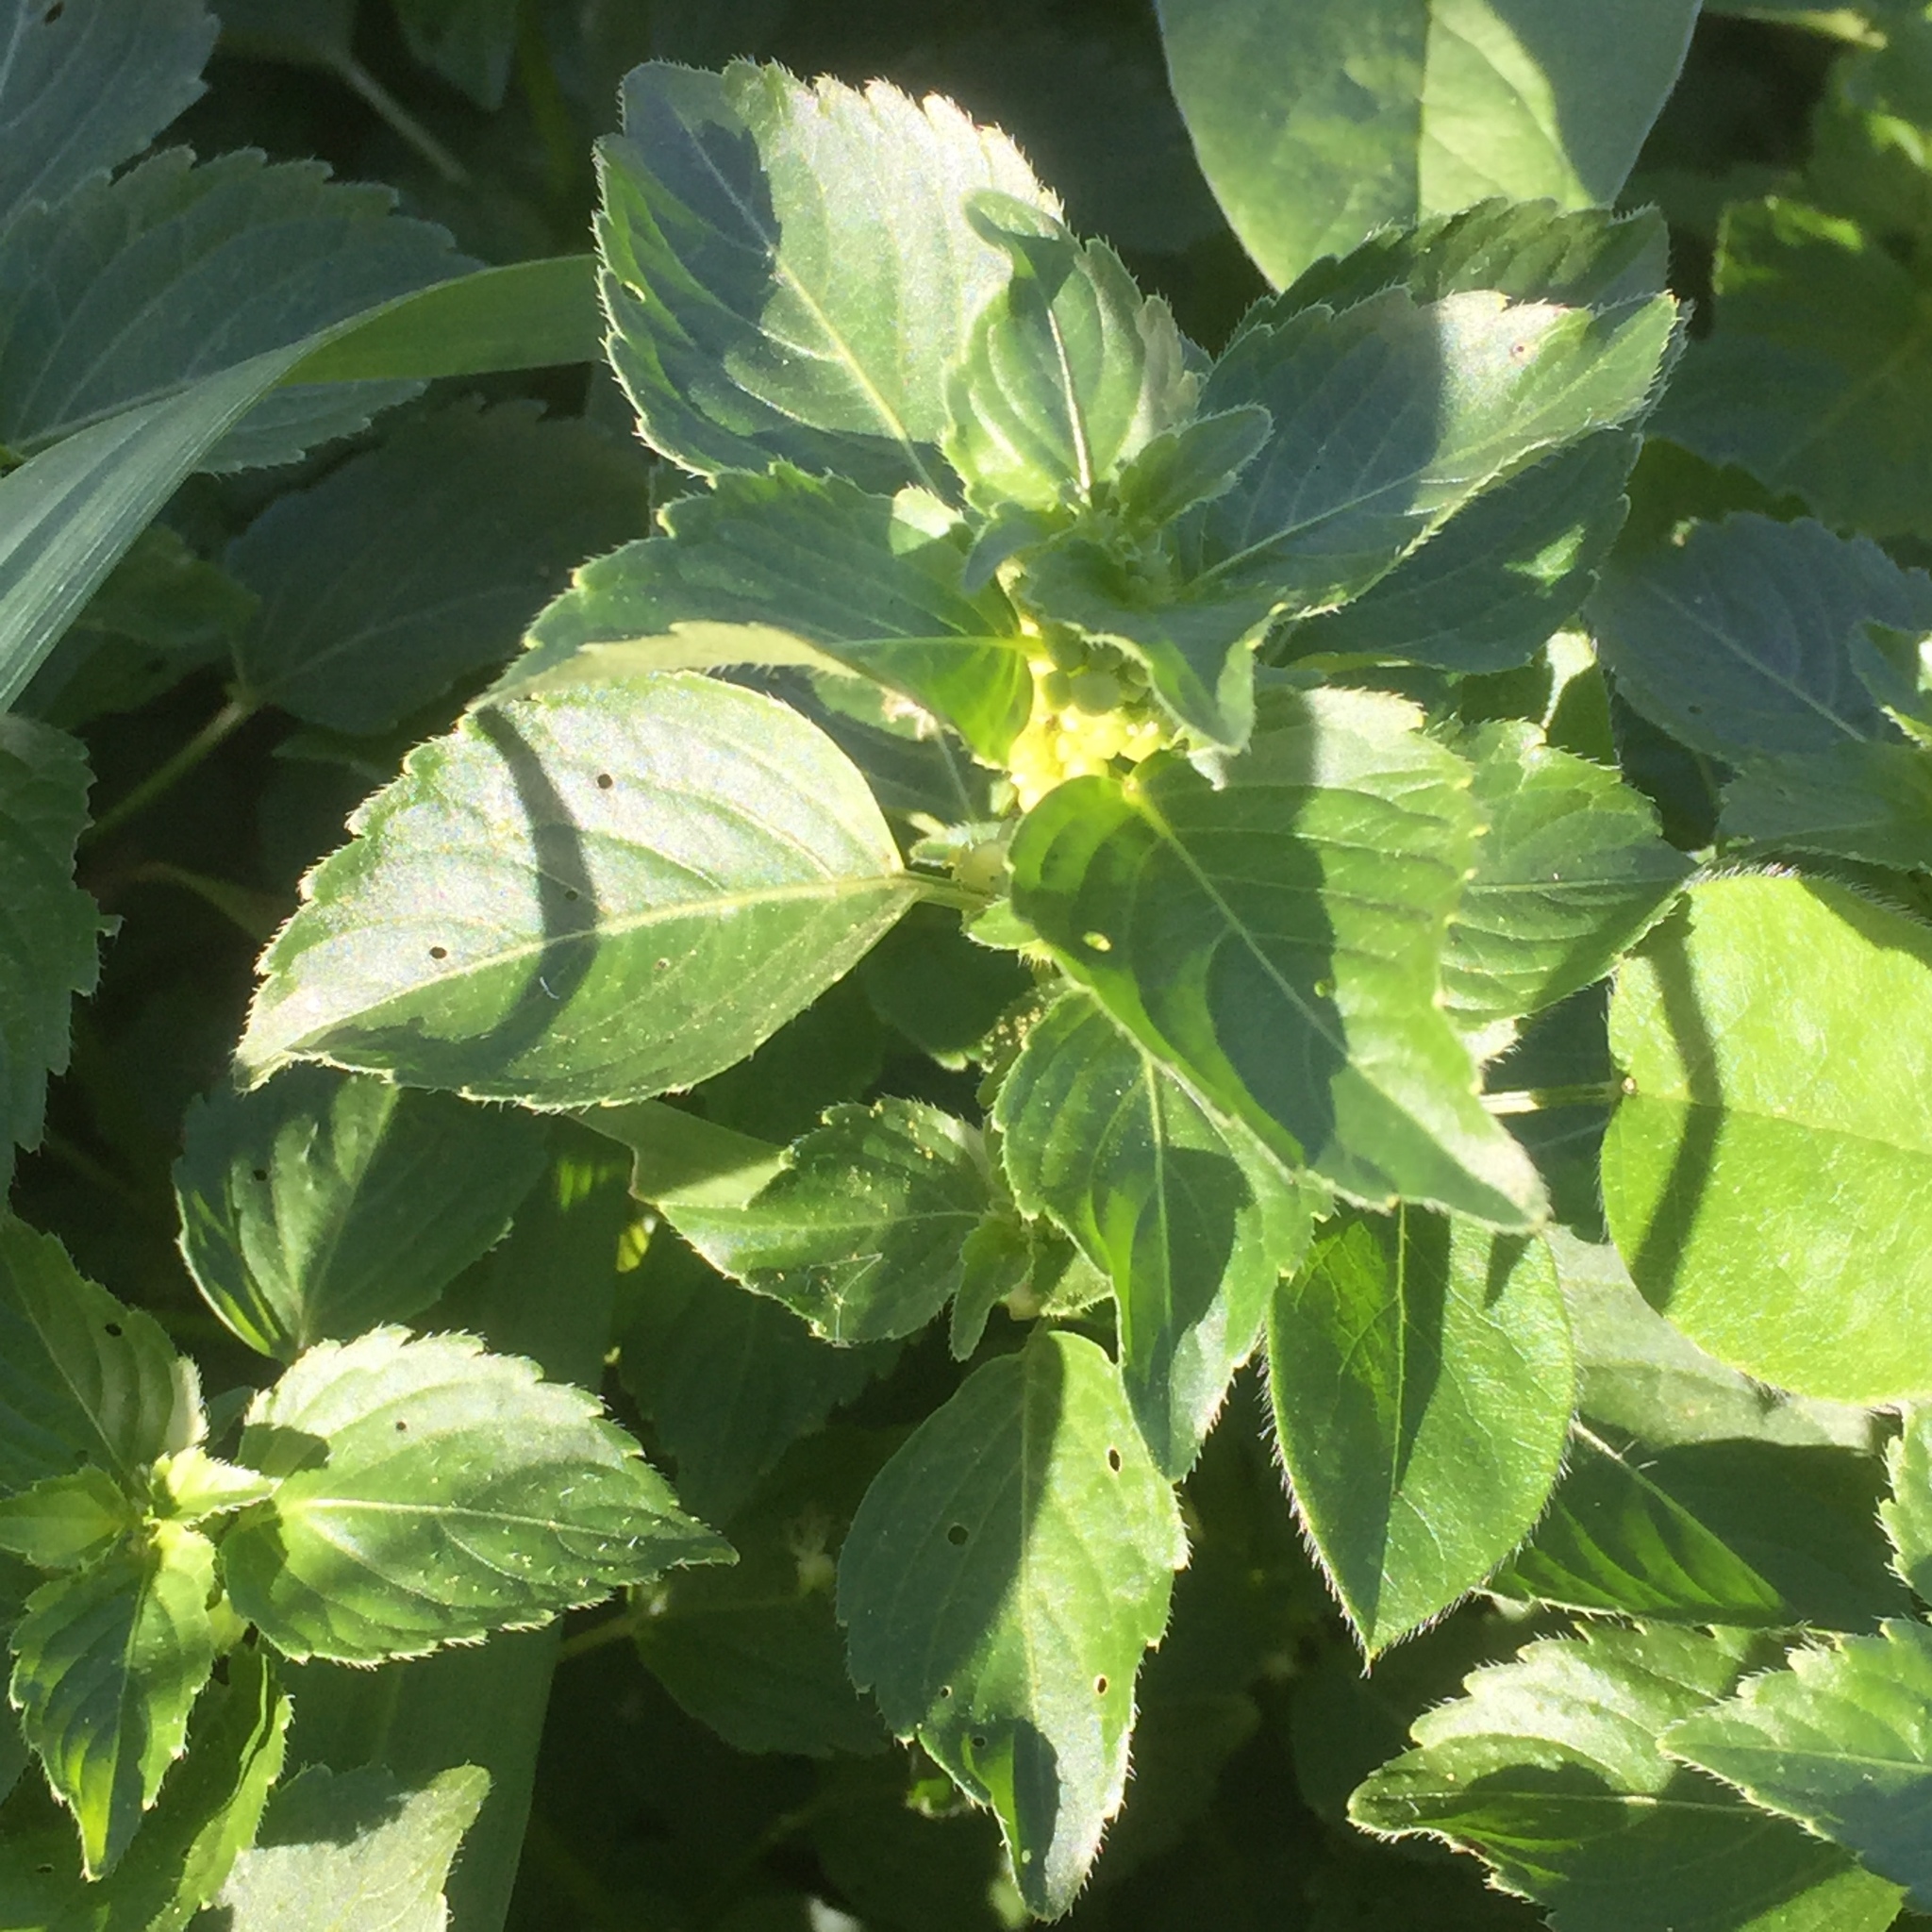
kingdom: Plantae
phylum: Tracheophyta
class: Magnoliopsida
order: Malpighiales
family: Euphorbiaceae
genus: Mercurialis
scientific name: Mercurialis annua
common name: Annual mercury
